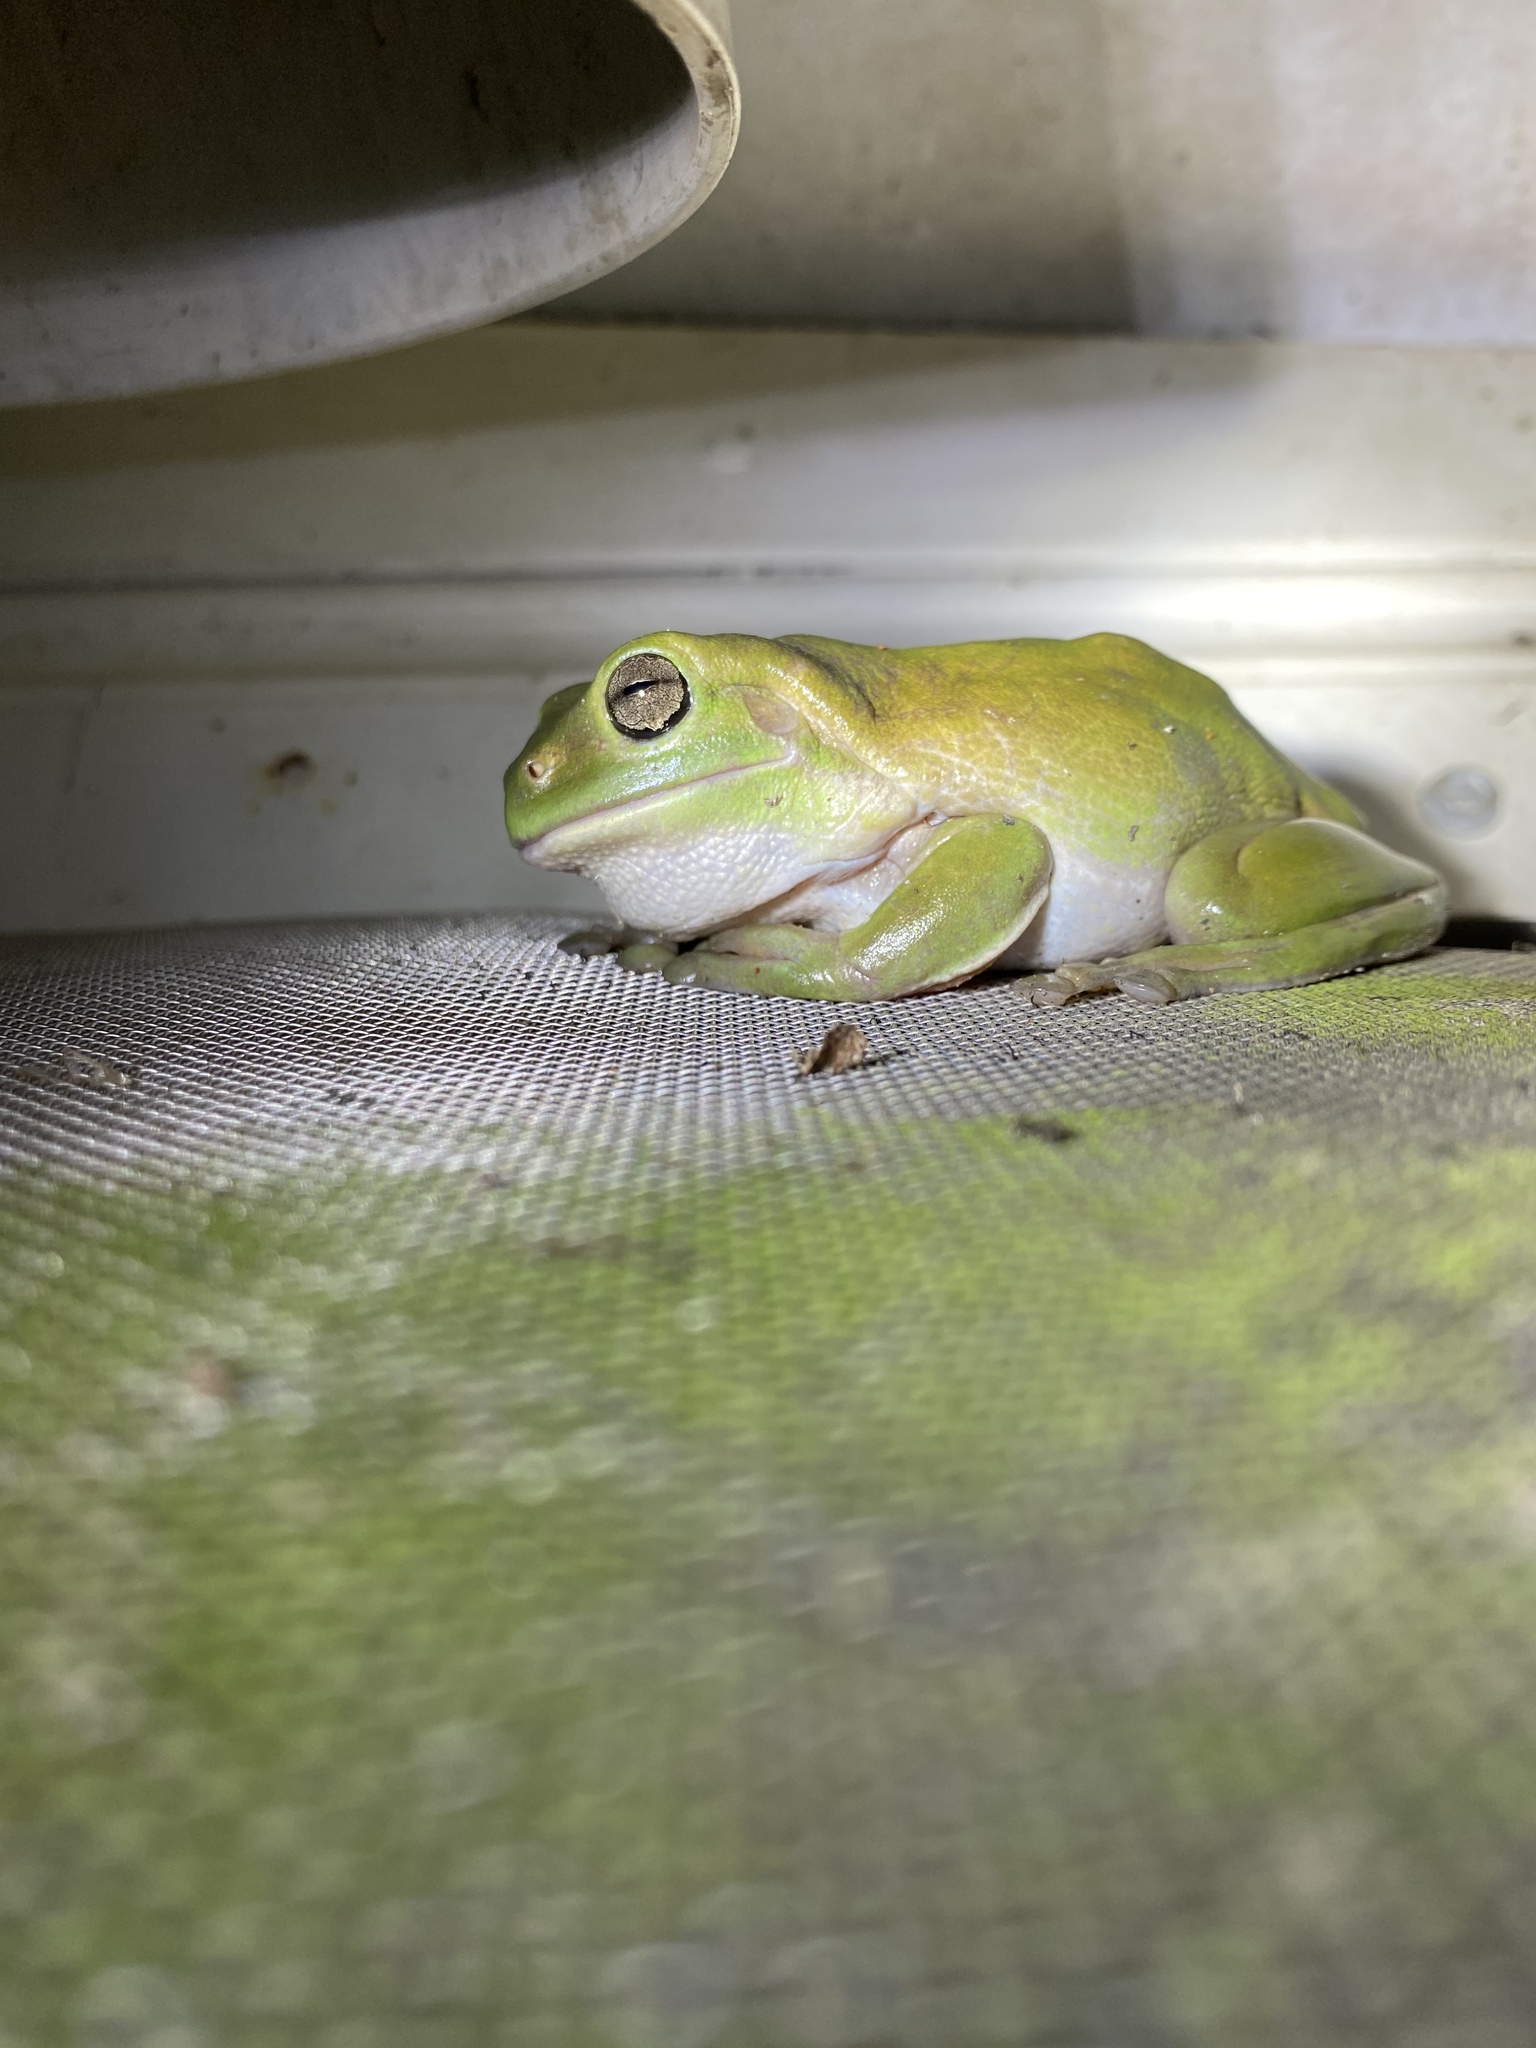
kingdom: Animalia
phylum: Chordata
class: Amphibia
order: Anura
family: Pelodryadidae
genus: Ranoidea
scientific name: Ranoidea caerulea
